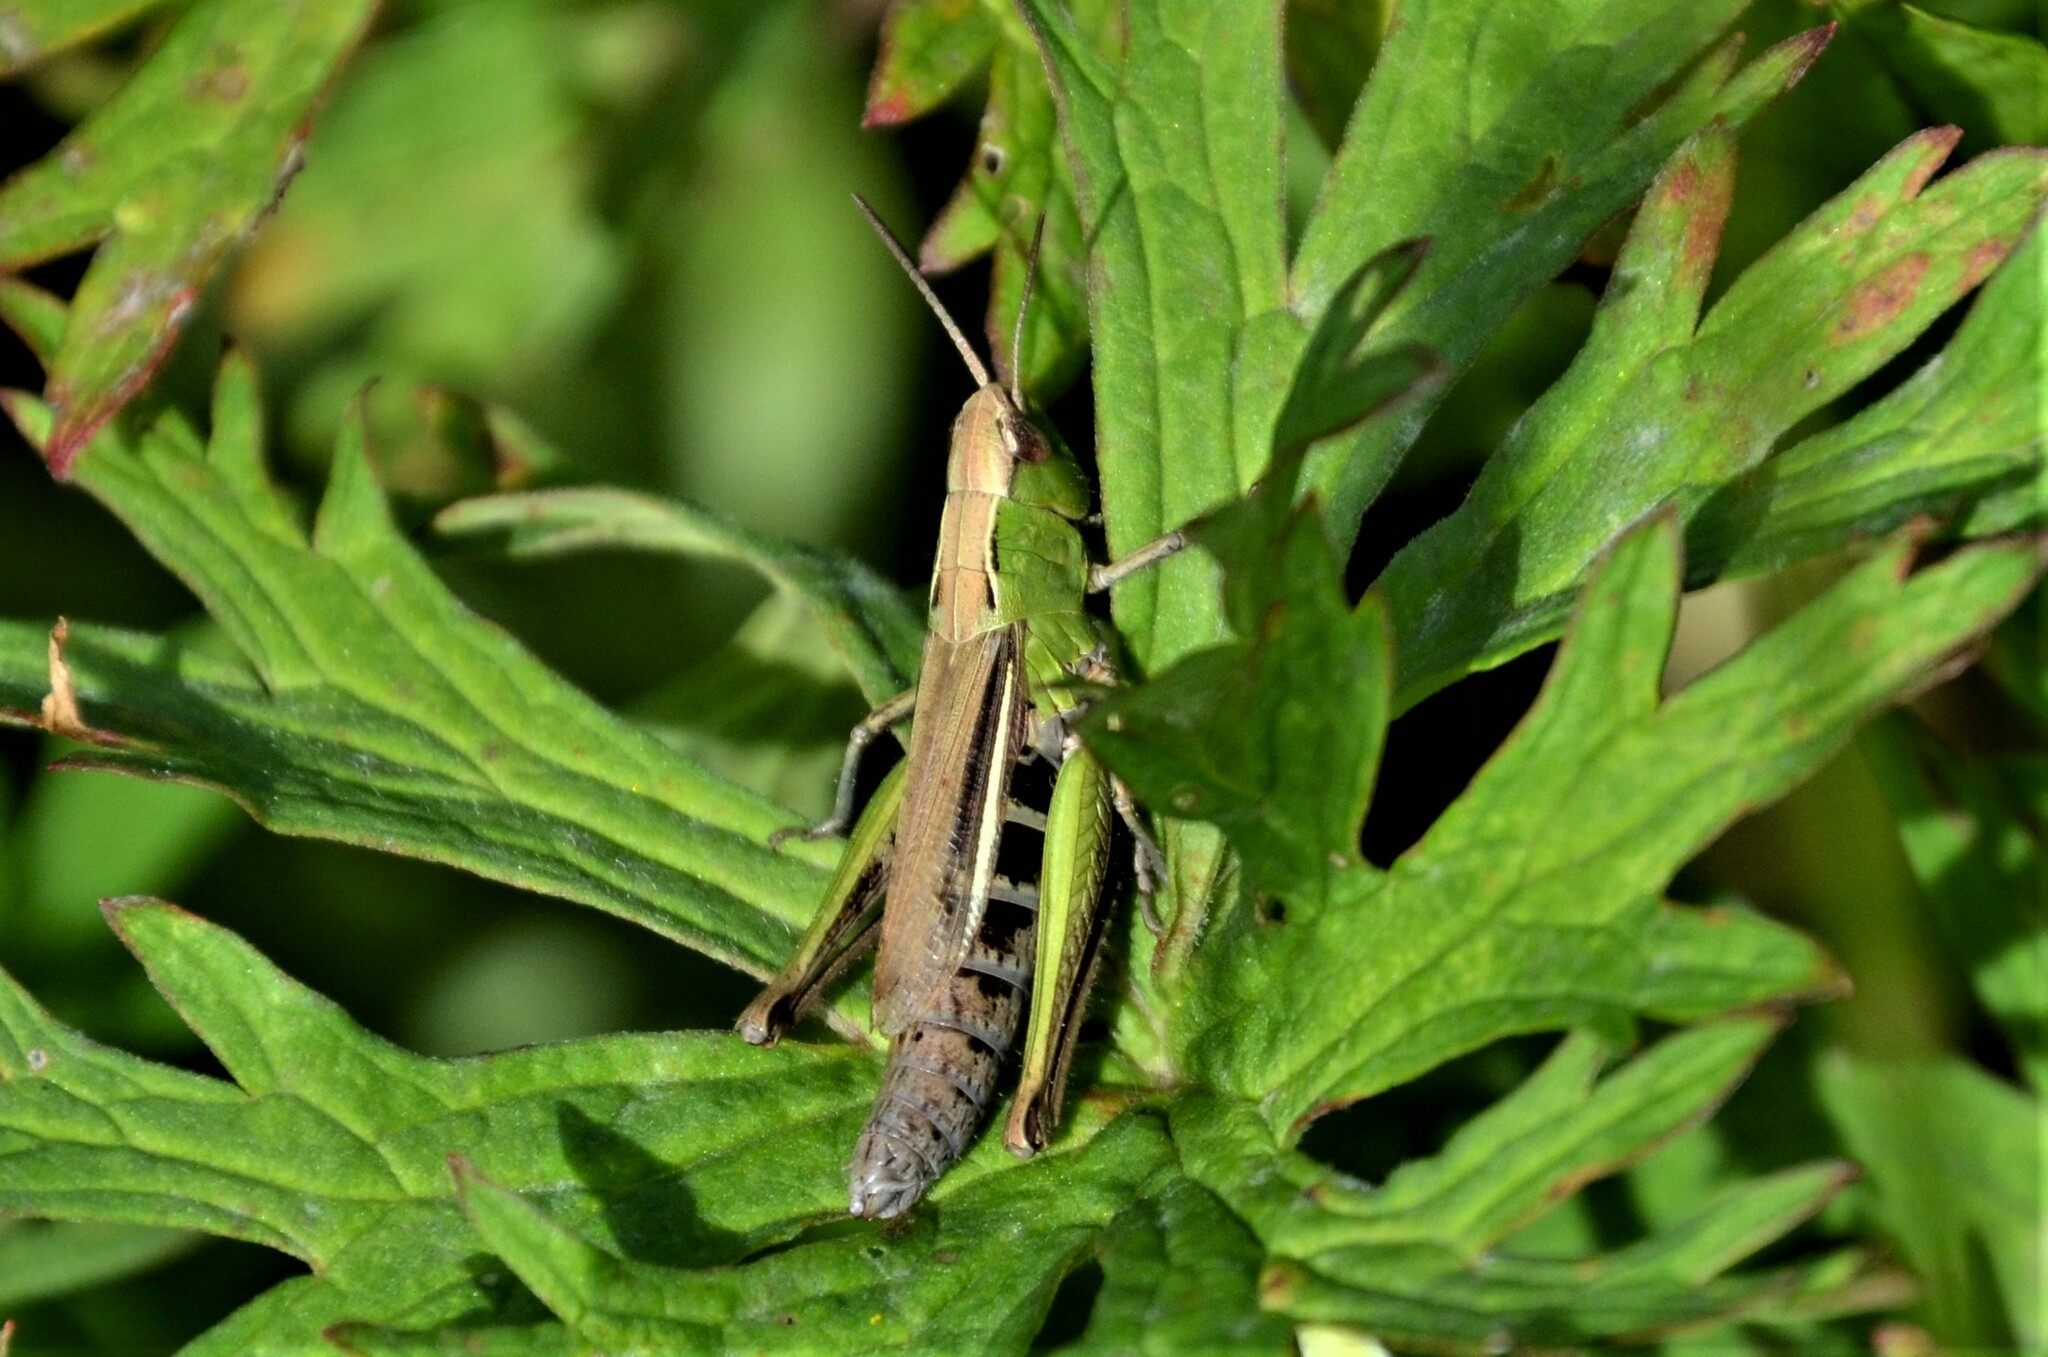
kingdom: Animalia
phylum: Arthropoda
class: Insecta
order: Orthoptera
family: Acrididae
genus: Chorthippus
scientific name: Chorthippus albomarginatus
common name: Lesser marsh grasshopper
